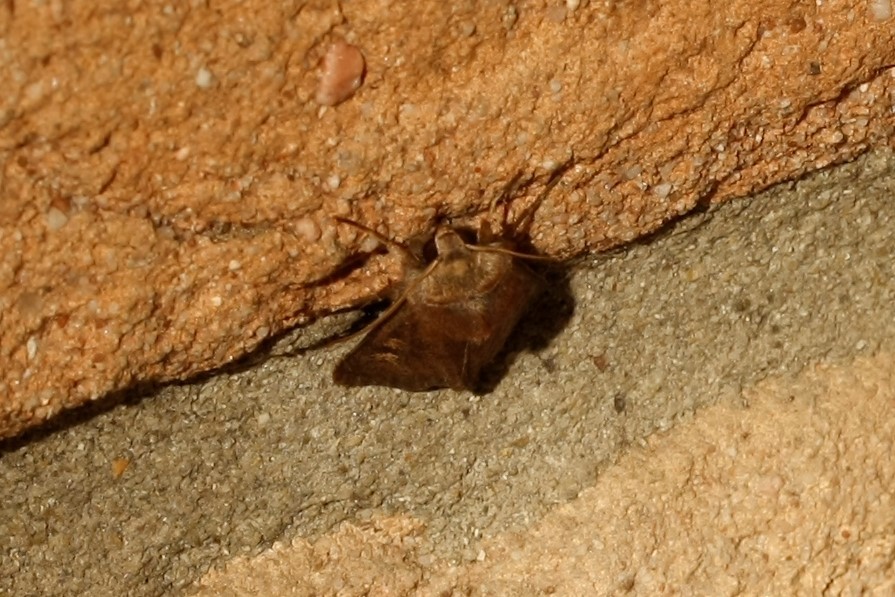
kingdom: Animalia
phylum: Arthropoda
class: Insecta
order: Lepidoptera
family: Noctuidae
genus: Xestia
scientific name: Xestia xanthographa
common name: Square-spot rustic
